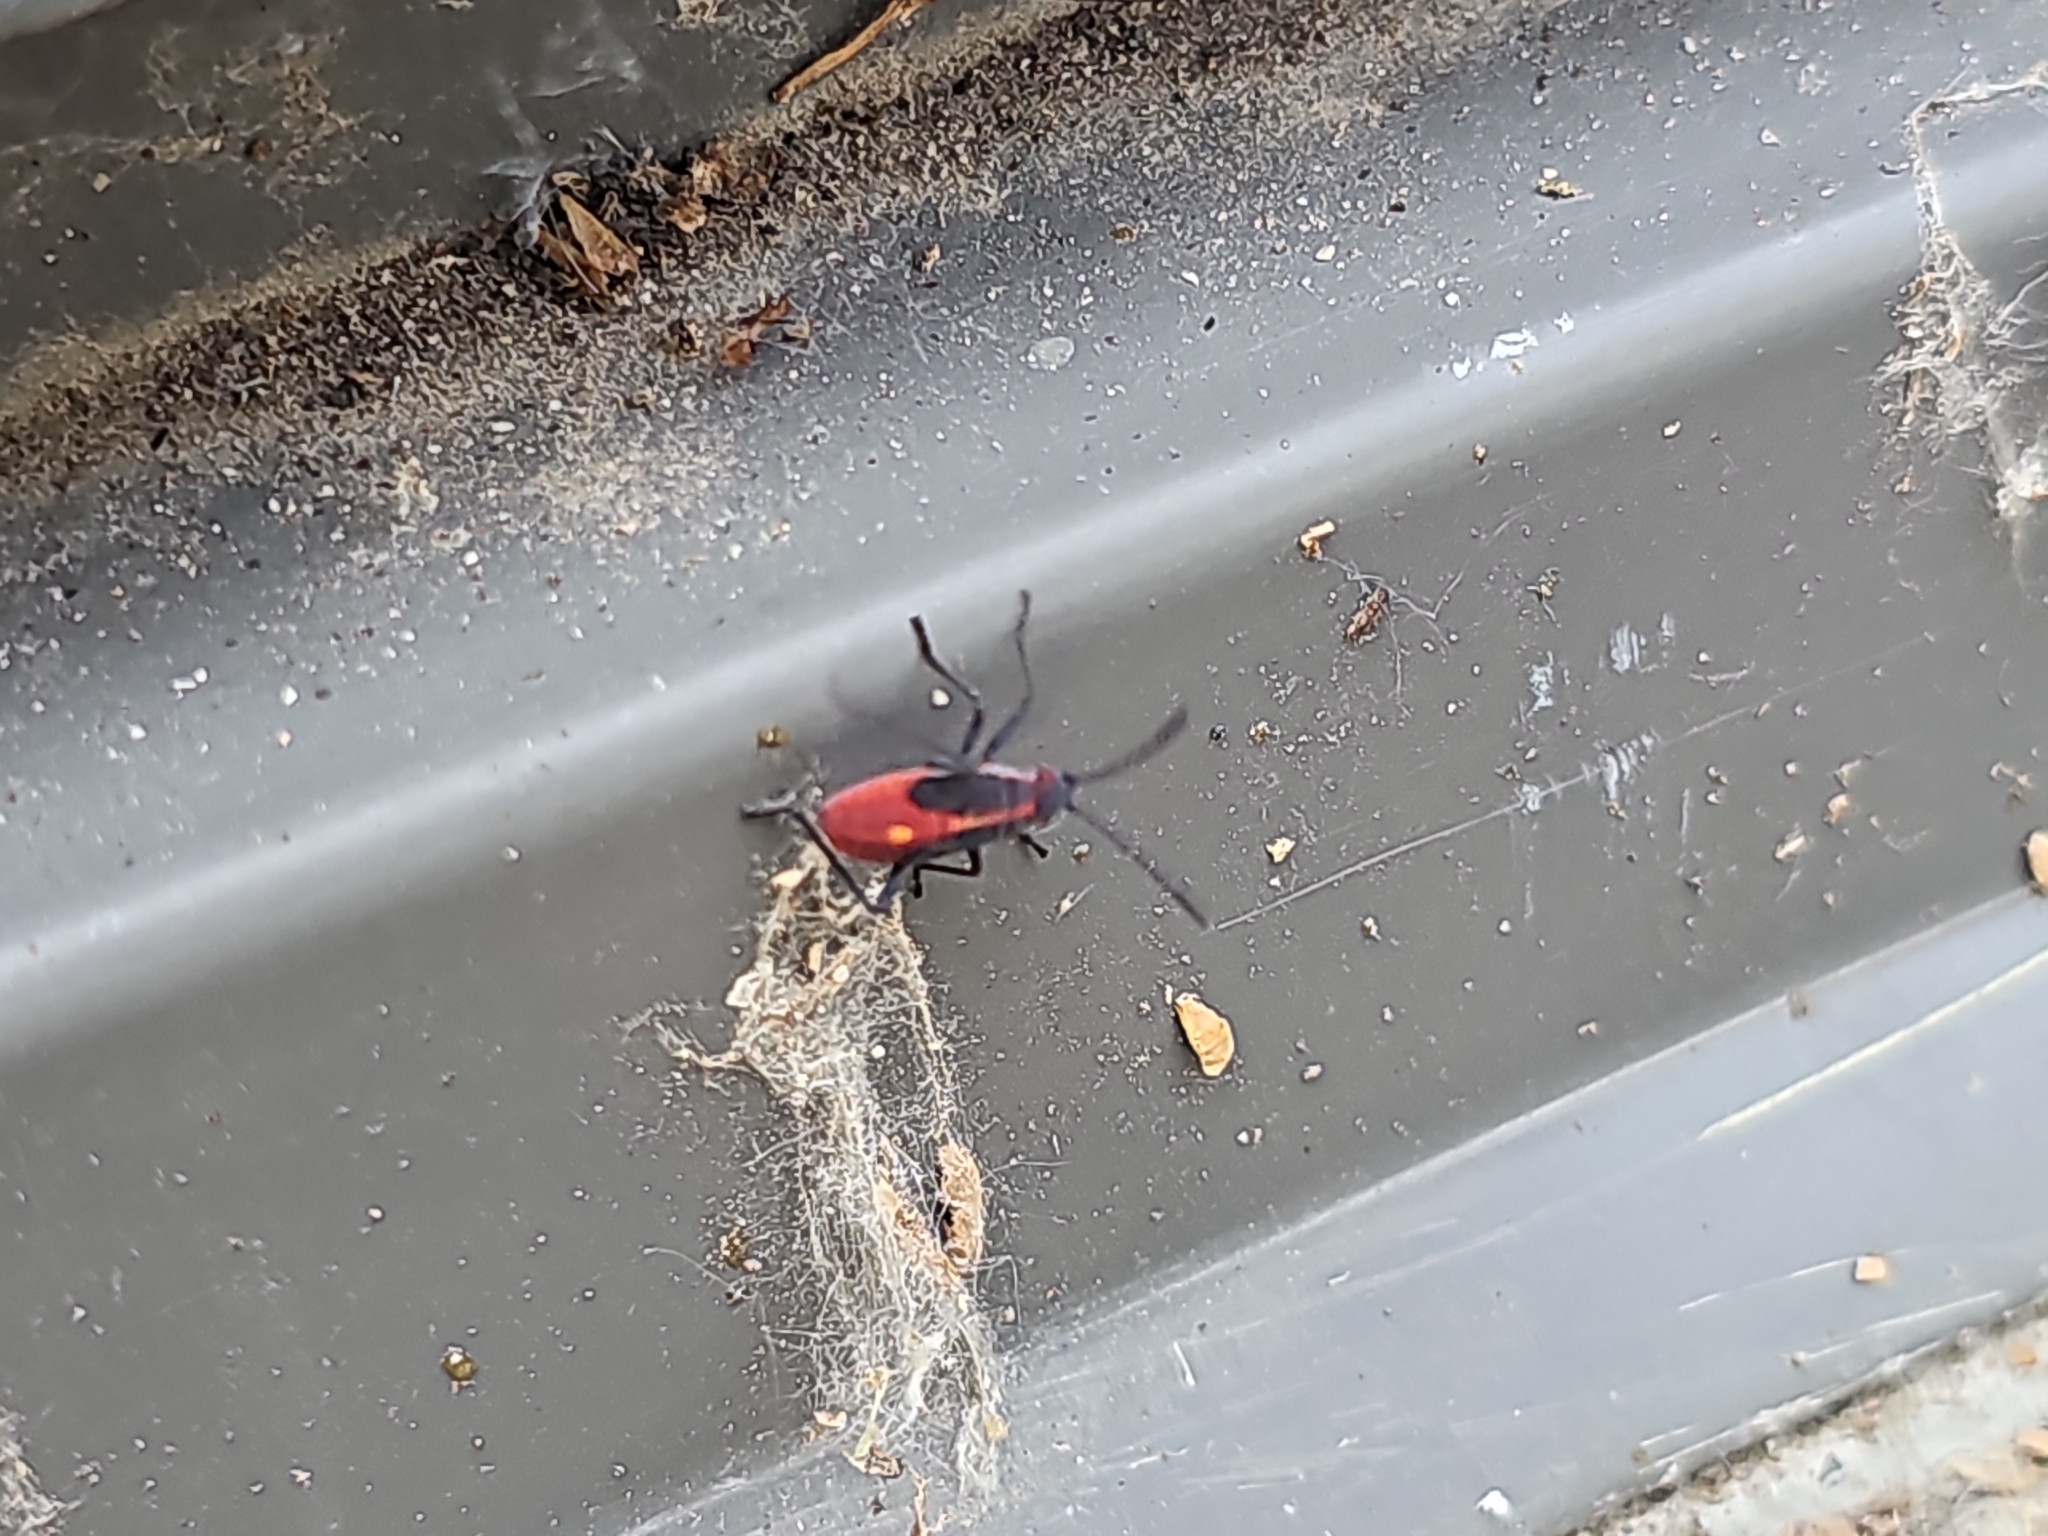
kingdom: Animalia
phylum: Arthropoda
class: Insecta
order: Hemiptera
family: Rhopalidae
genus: Boisea
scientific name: Boisea trivittata
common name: Boxelder bug
